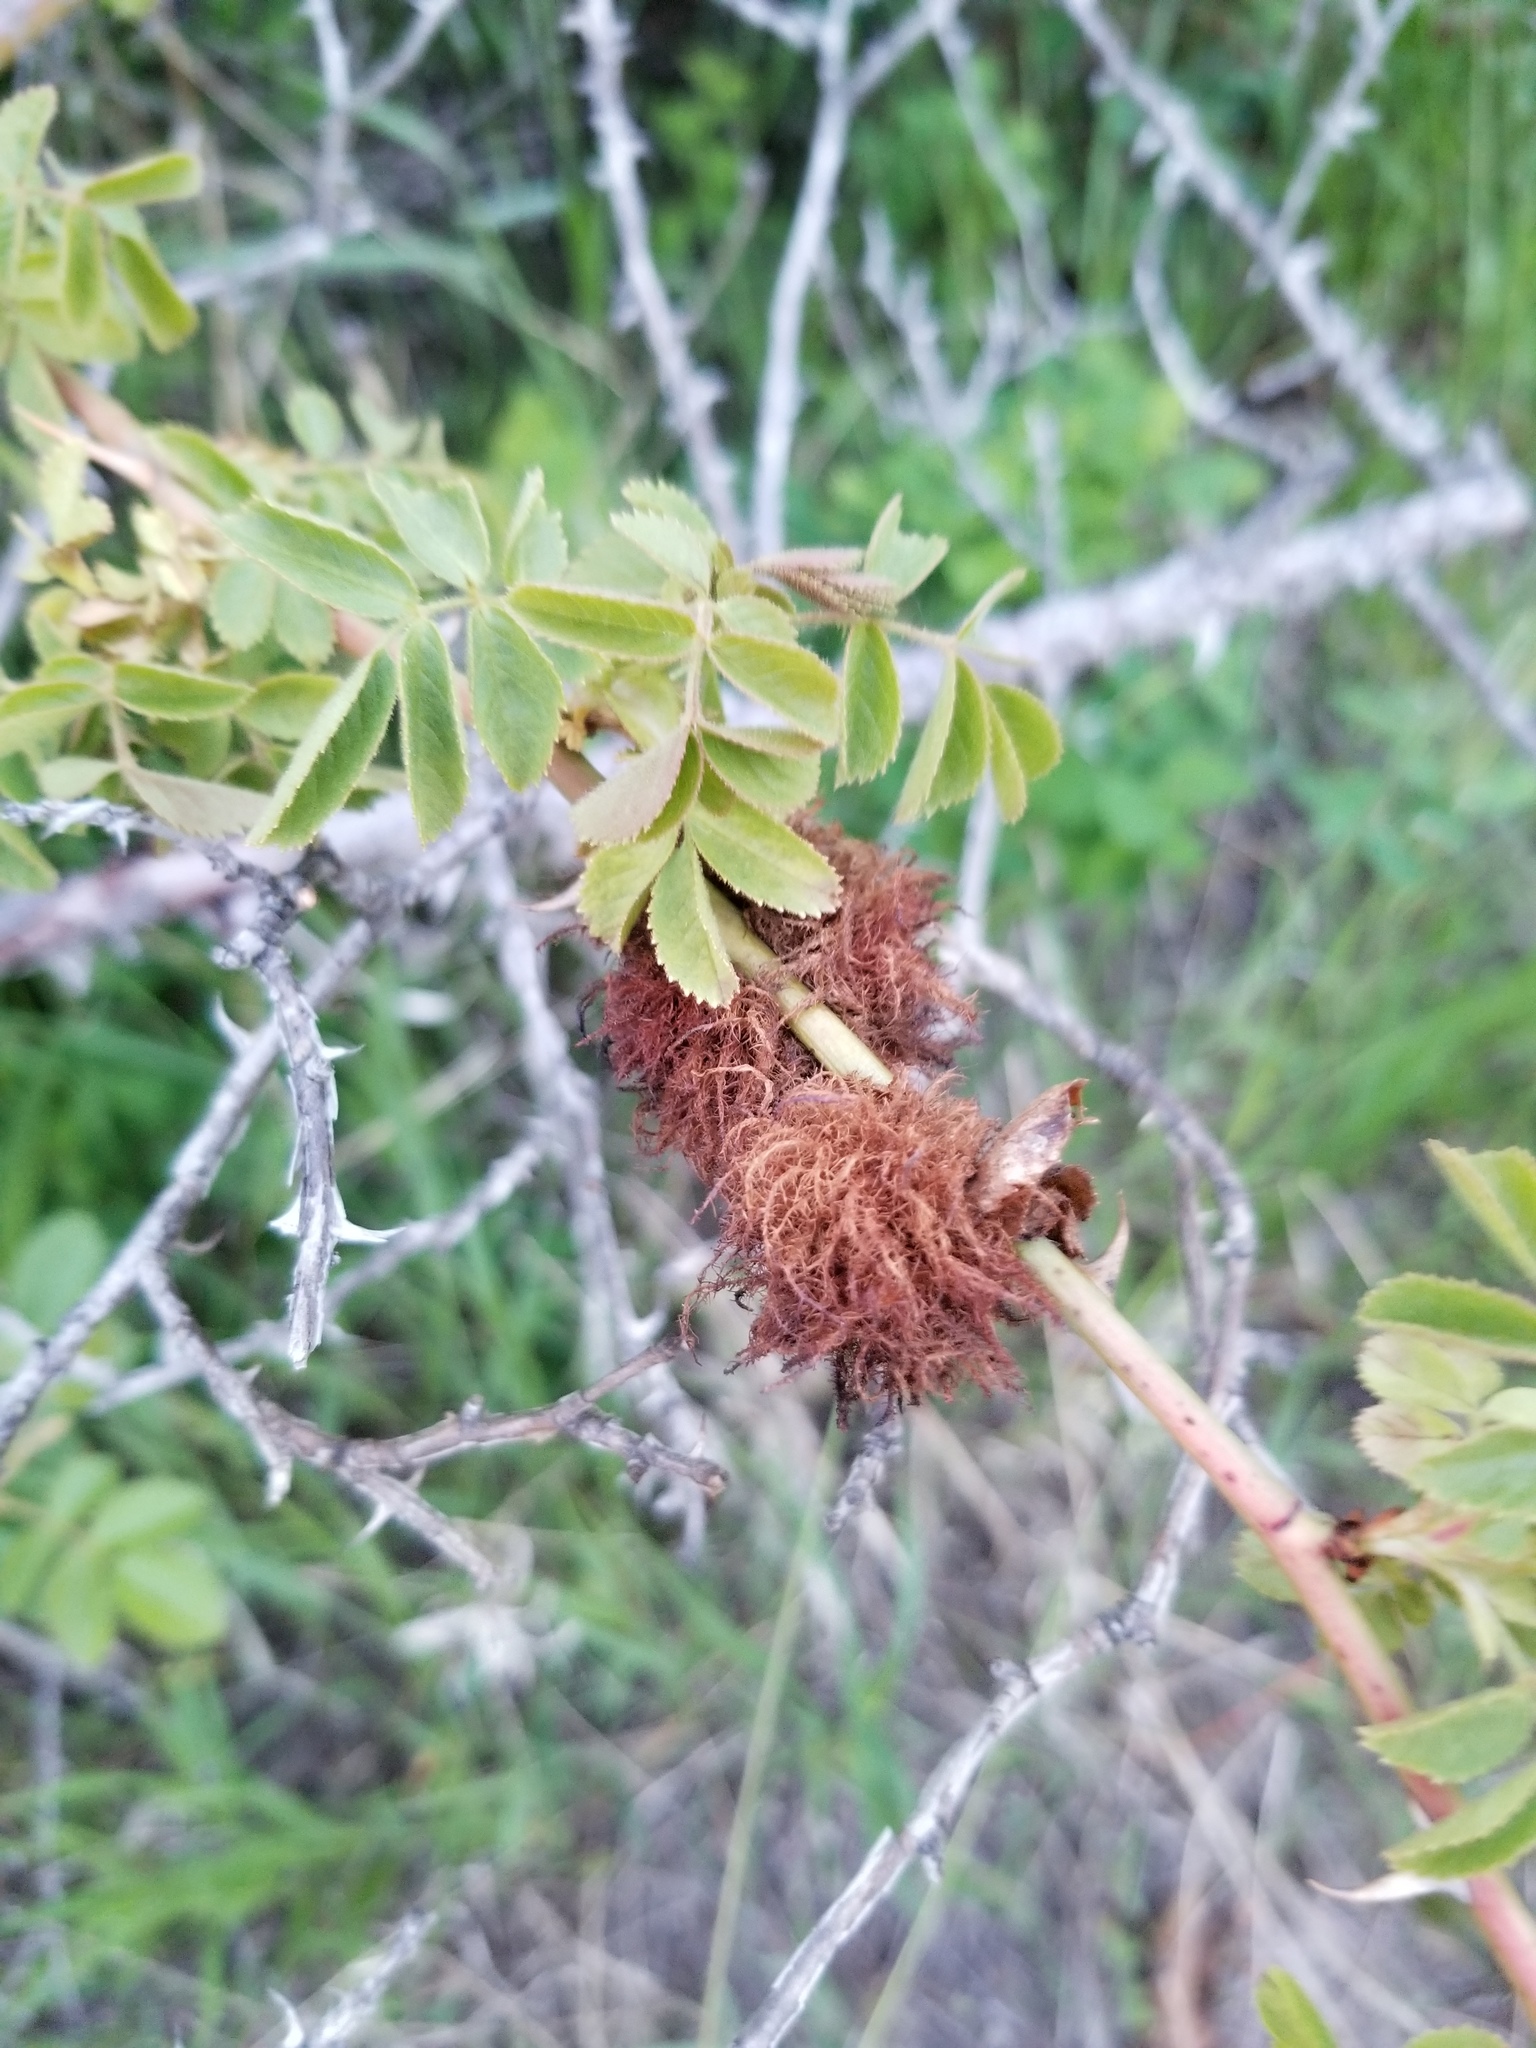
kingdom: Animalia
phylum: Arthropoda
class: Insecta
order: Hymenoptera
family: Cynipidae
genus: Diplolepis
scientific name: Diplolepis rosae
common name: Bedeguar gall
